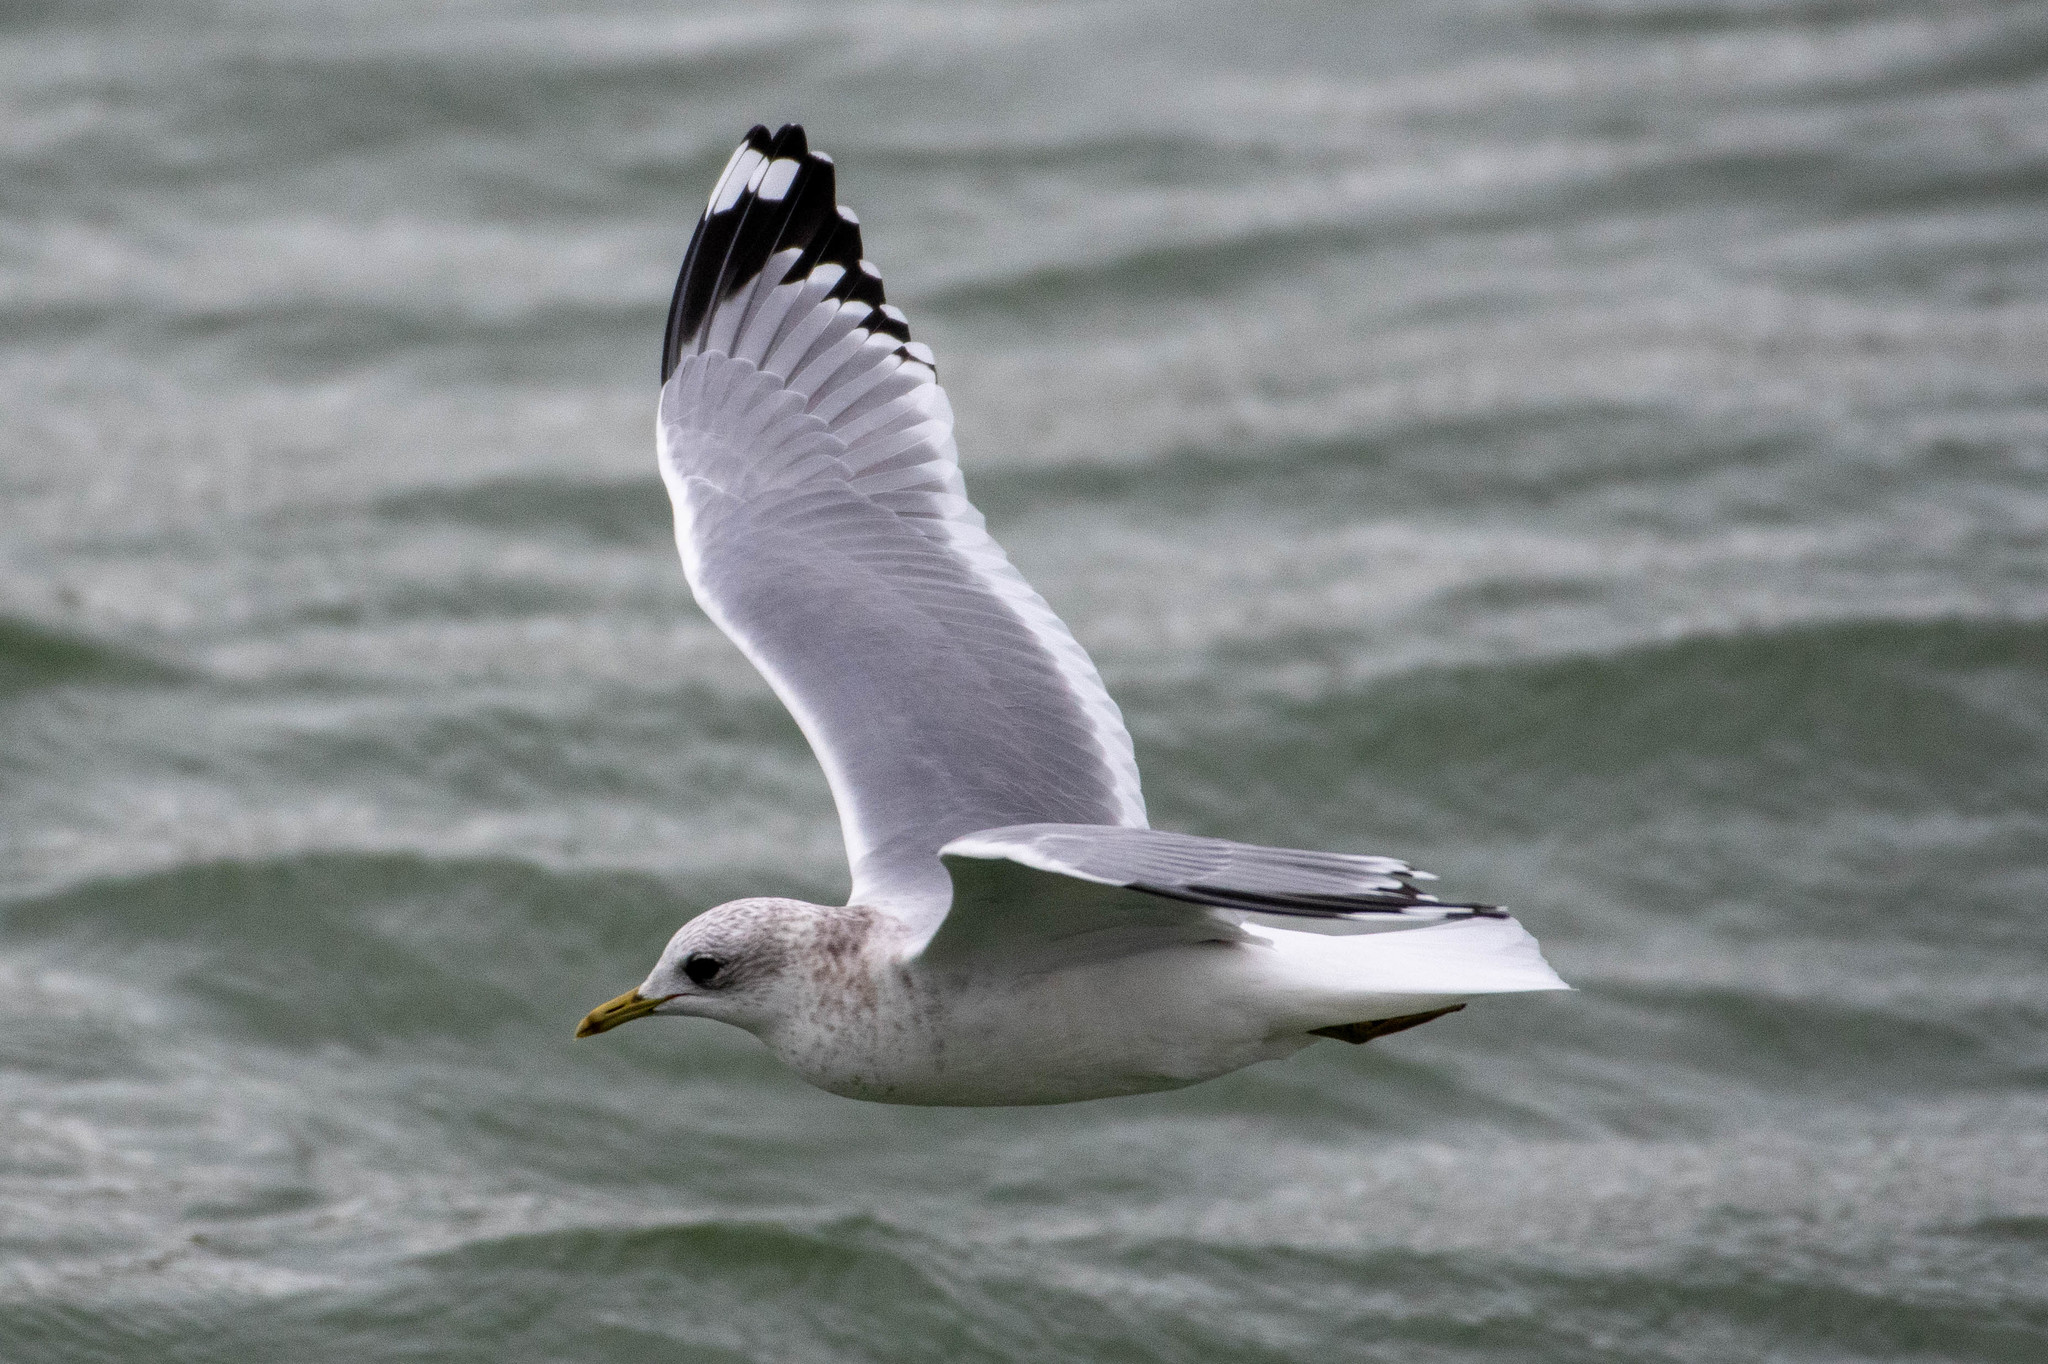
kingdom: Animalia
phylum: Chordata
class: Aves
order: Charadriiformes
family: Laridae
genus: Larus
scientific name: Larus brachyrhynchus
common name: Short-billed gull
